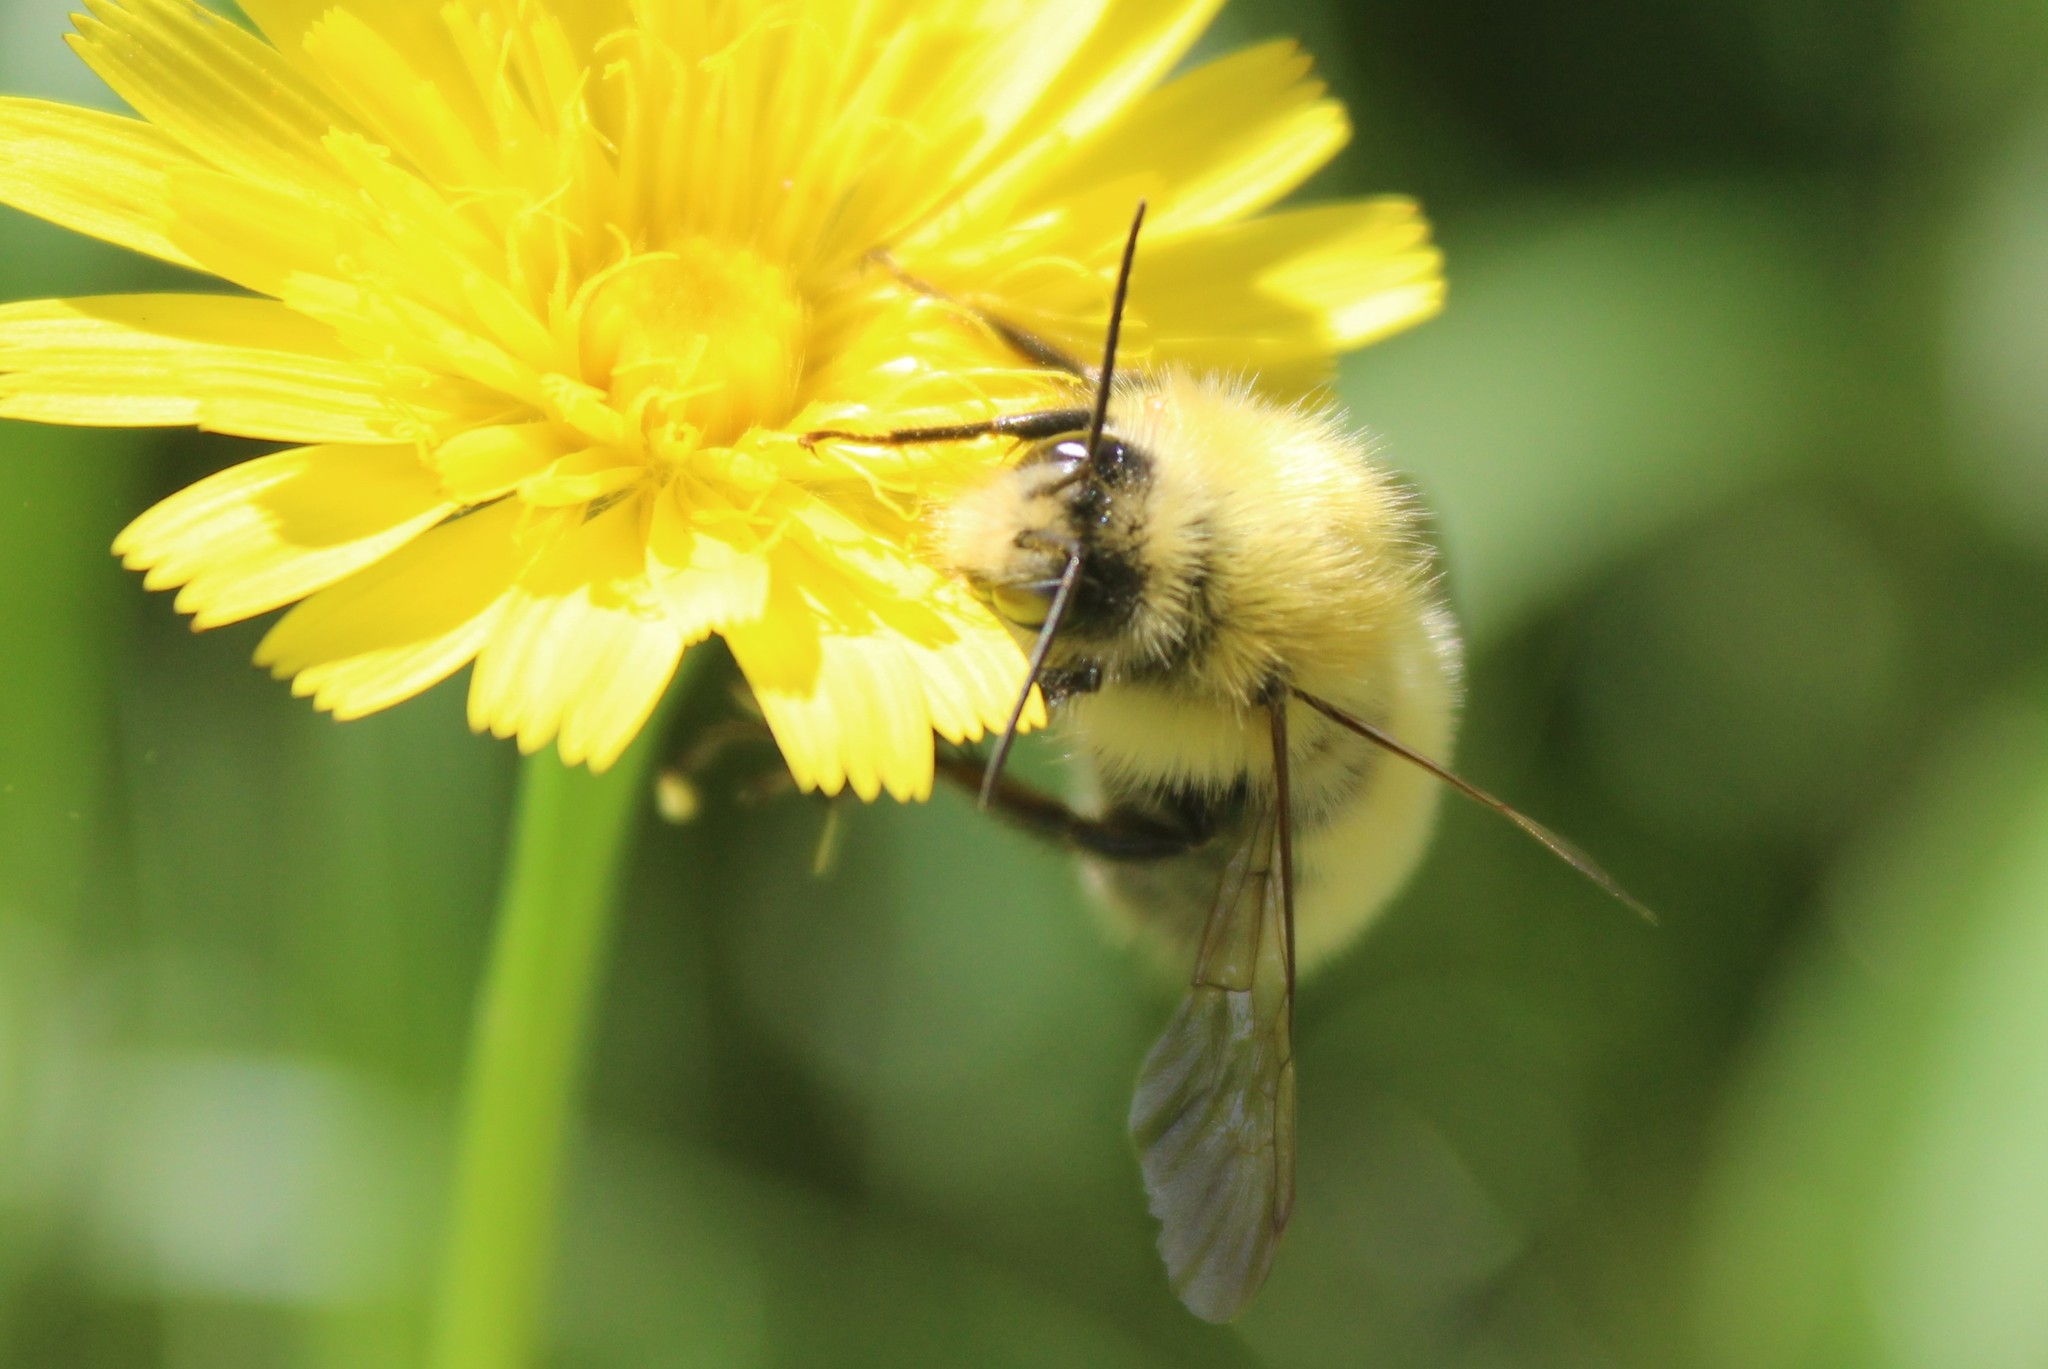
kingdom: Animalia
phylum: Arthropoda
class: Insecta
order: Hymenoptera
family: Apidae
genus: Bombus
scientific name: Bombus perplexus
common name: Confusing bumble bee
